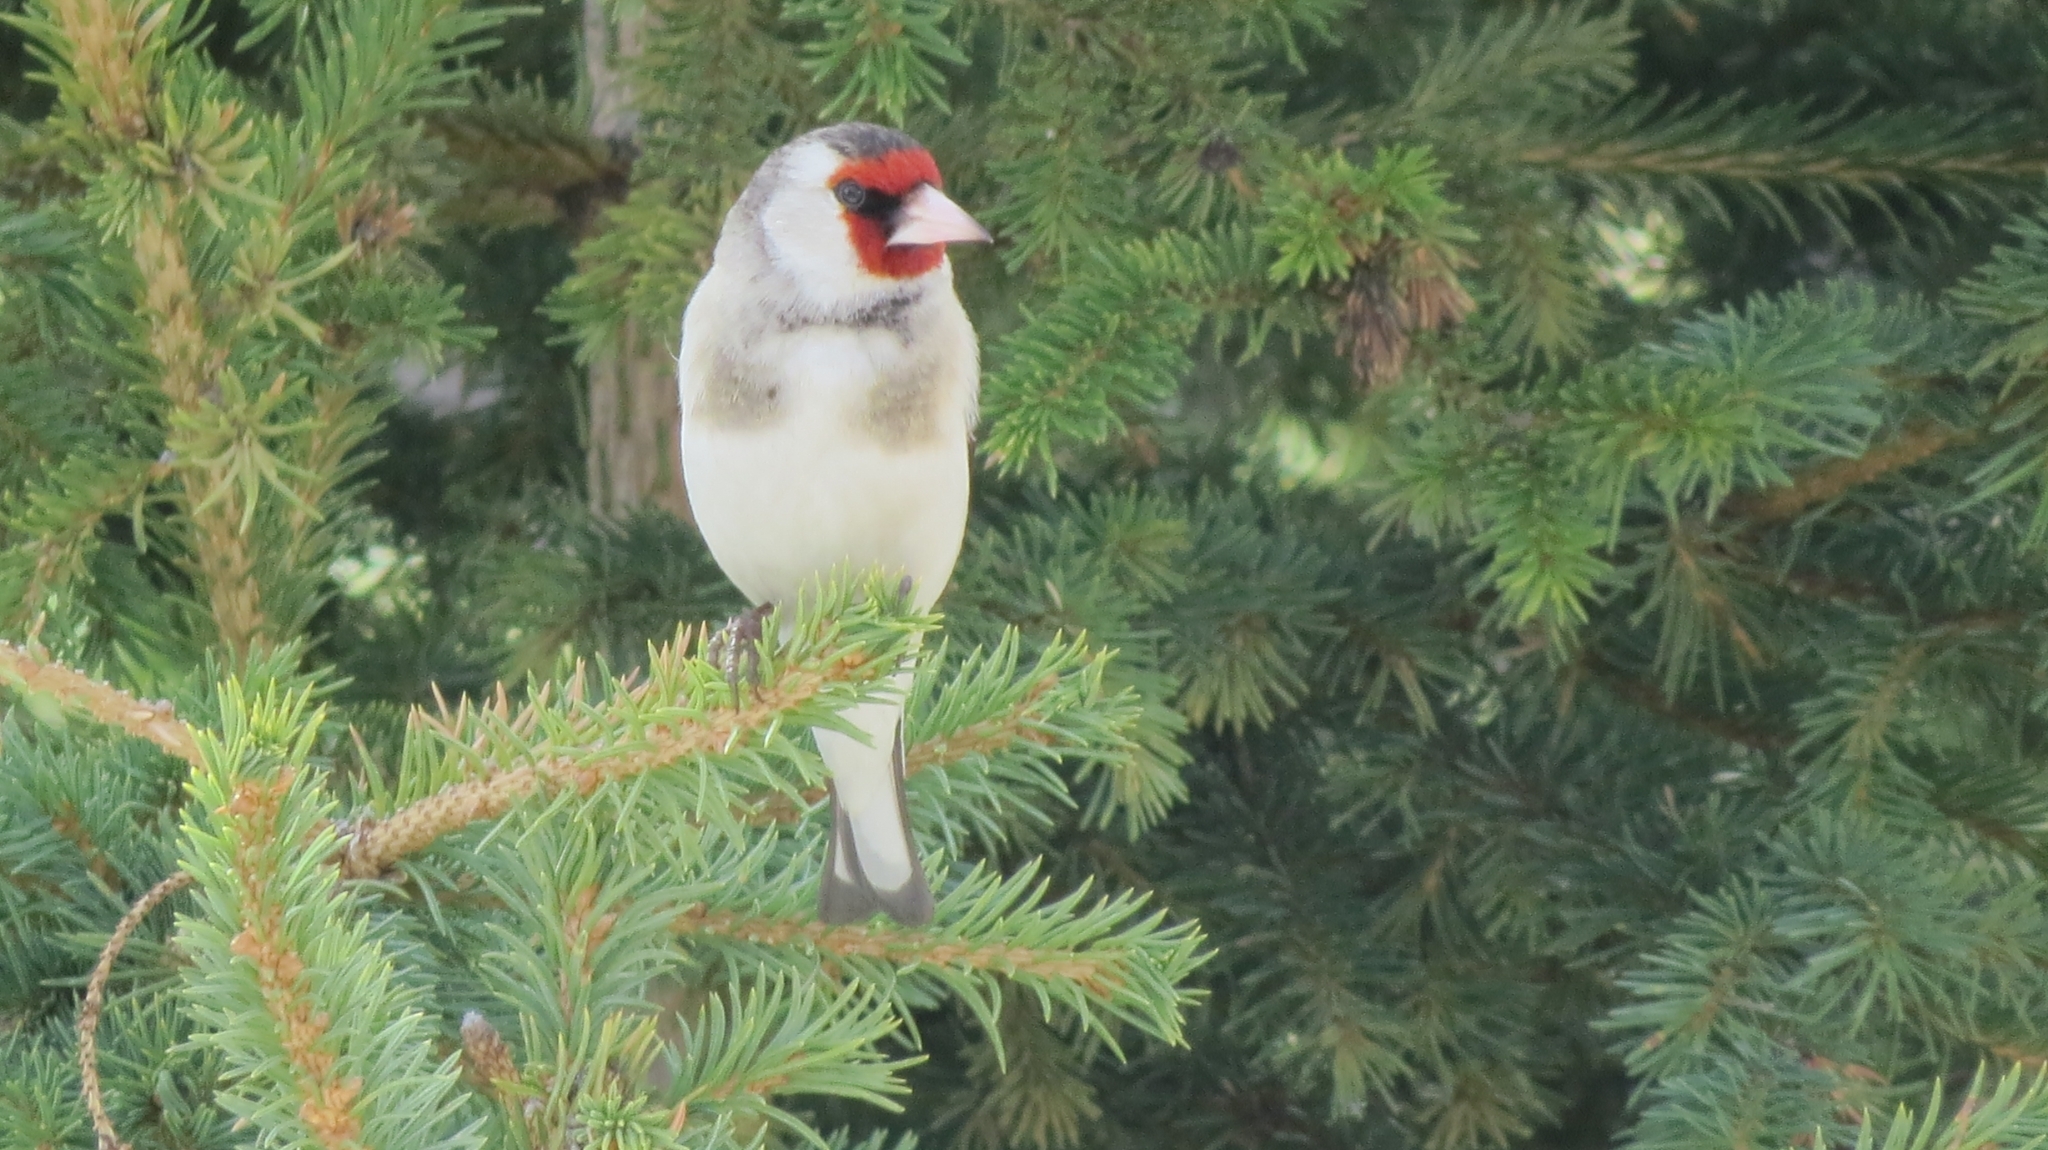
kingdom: Animalia
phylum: Chordata
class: Aves
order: Passeriformes
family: Fringillidae
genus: Carduelis
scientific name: Carduelis carduelis
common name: European goldfinch
